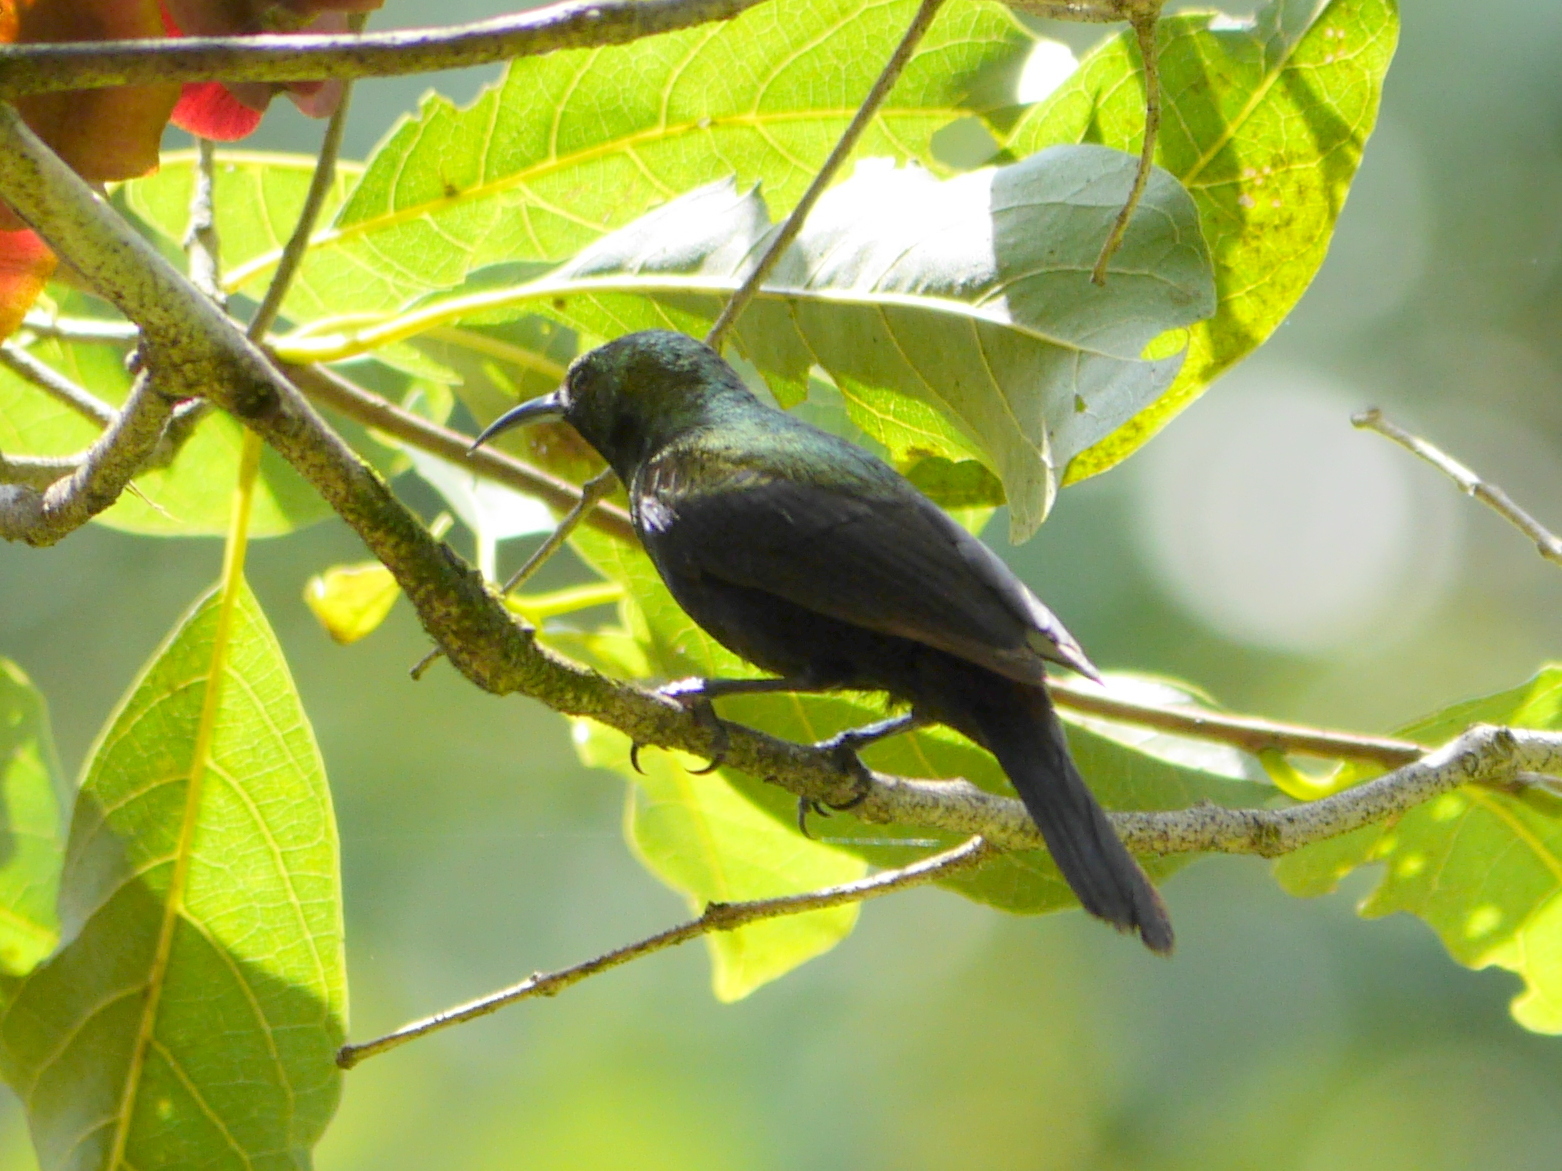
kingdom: Animalia
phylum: Chordata
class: Aves
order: Passeriformes
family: Nectariniidae
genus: Cinnyris
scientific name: Cinnyris cupreus
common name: Copper sunbird
